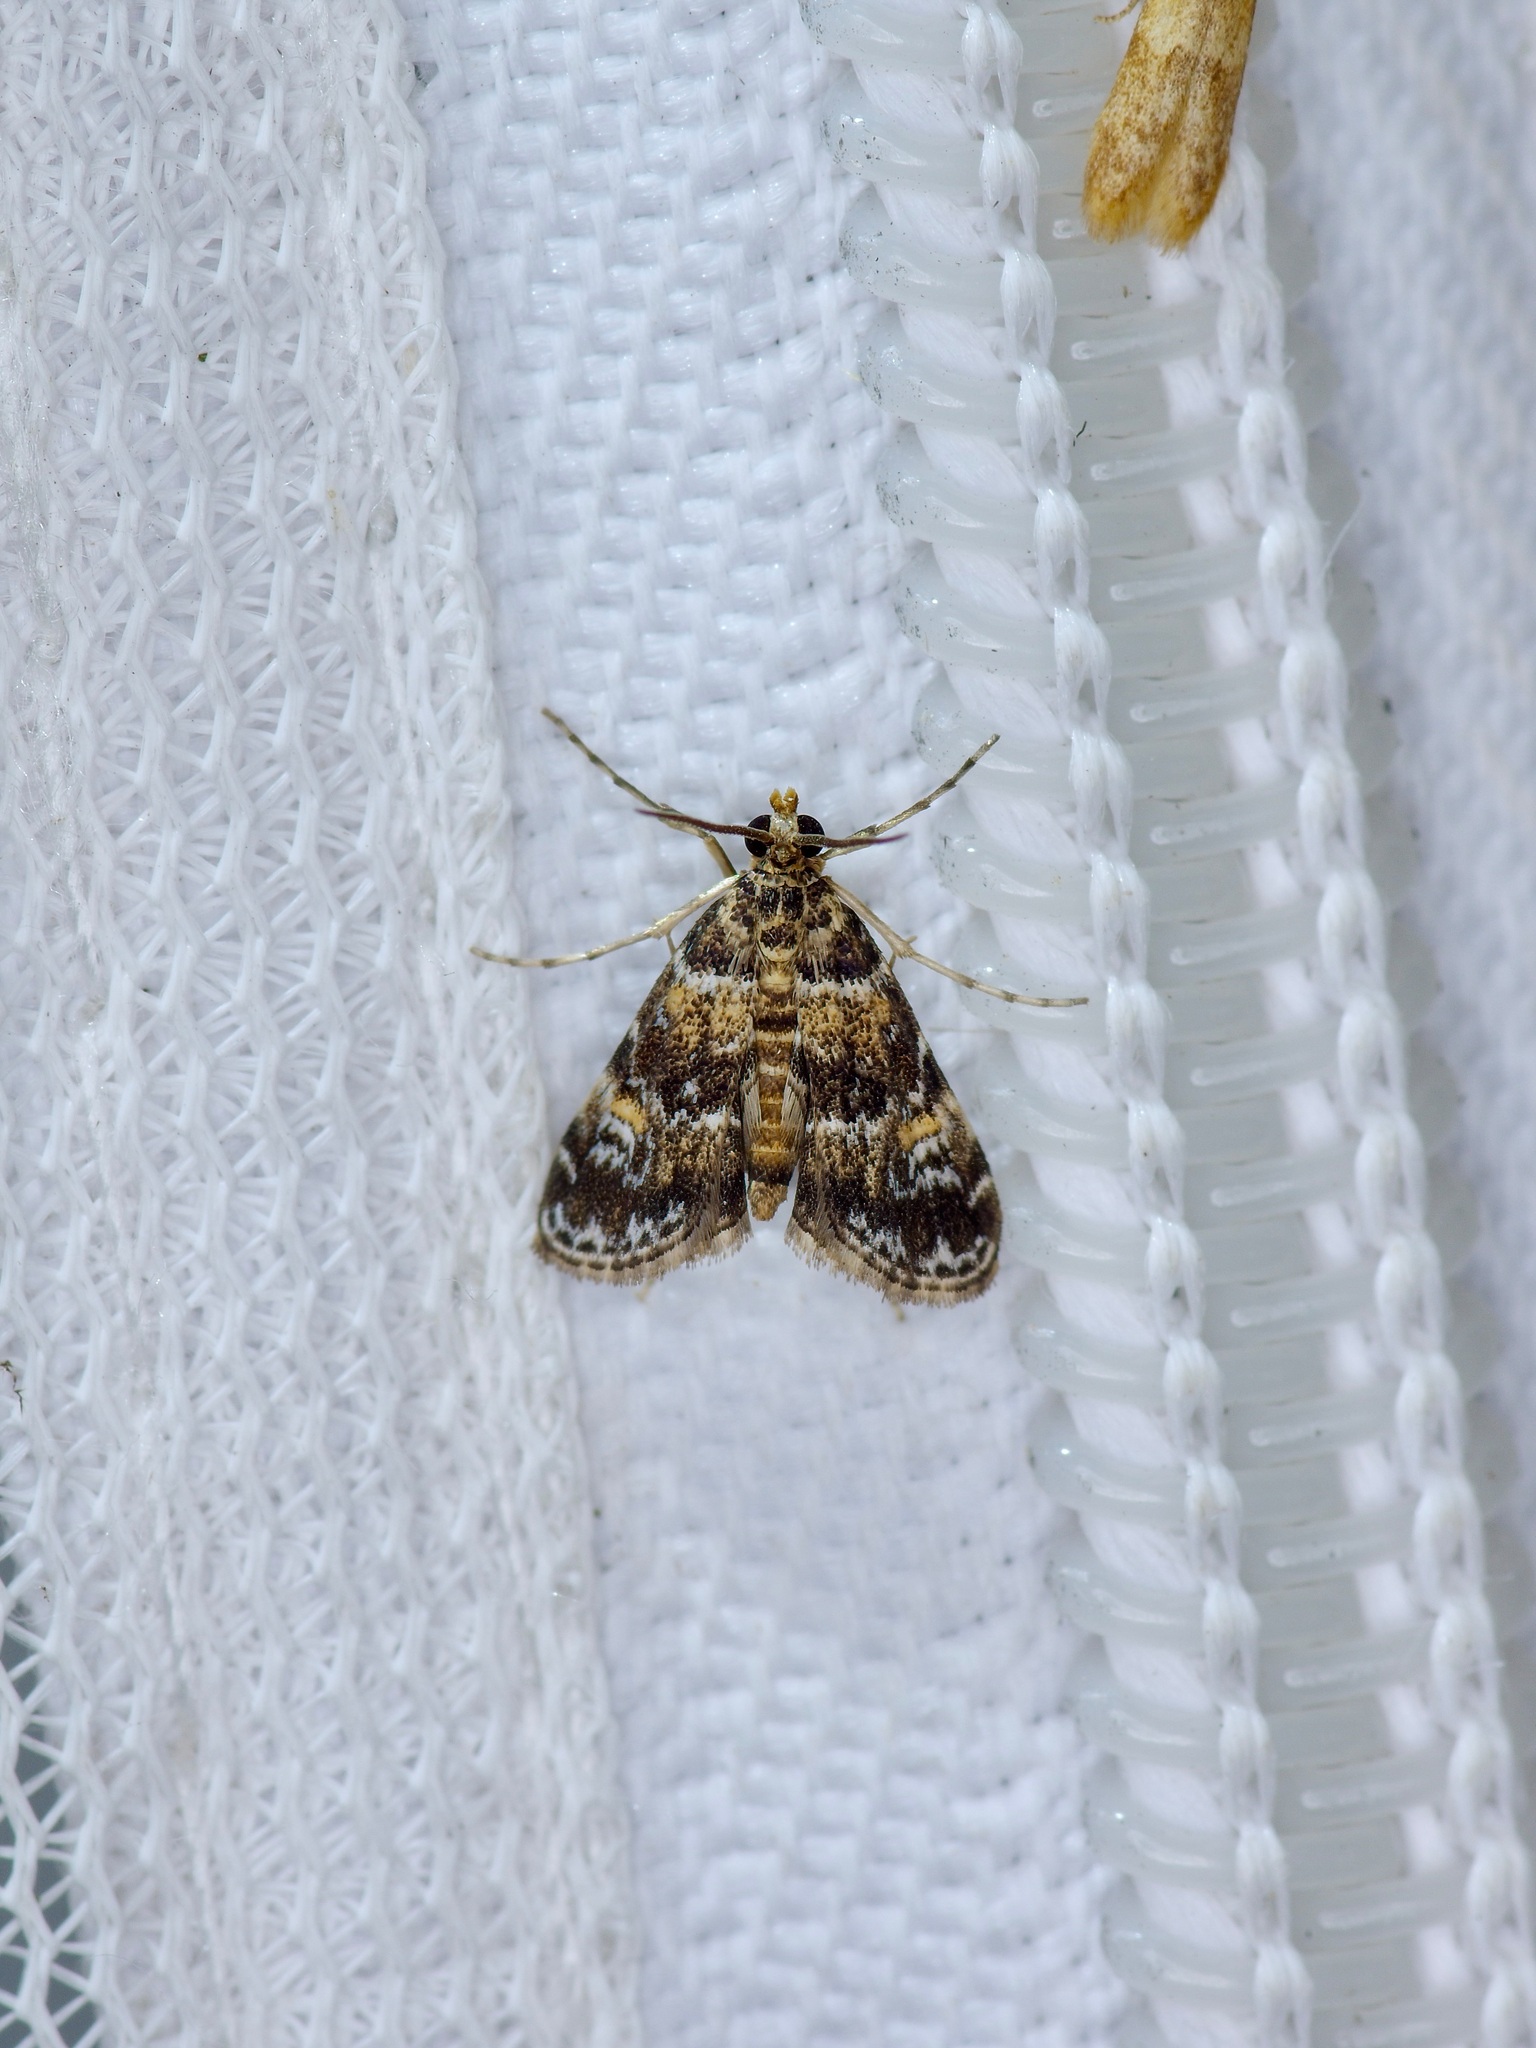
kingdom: Animalia
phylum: Arthropoda
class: Insecta
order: Lepidoptera
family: Crambidae
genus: Elophila
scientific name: Elophila obliteralis
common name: Waterlily leafcutter moth
